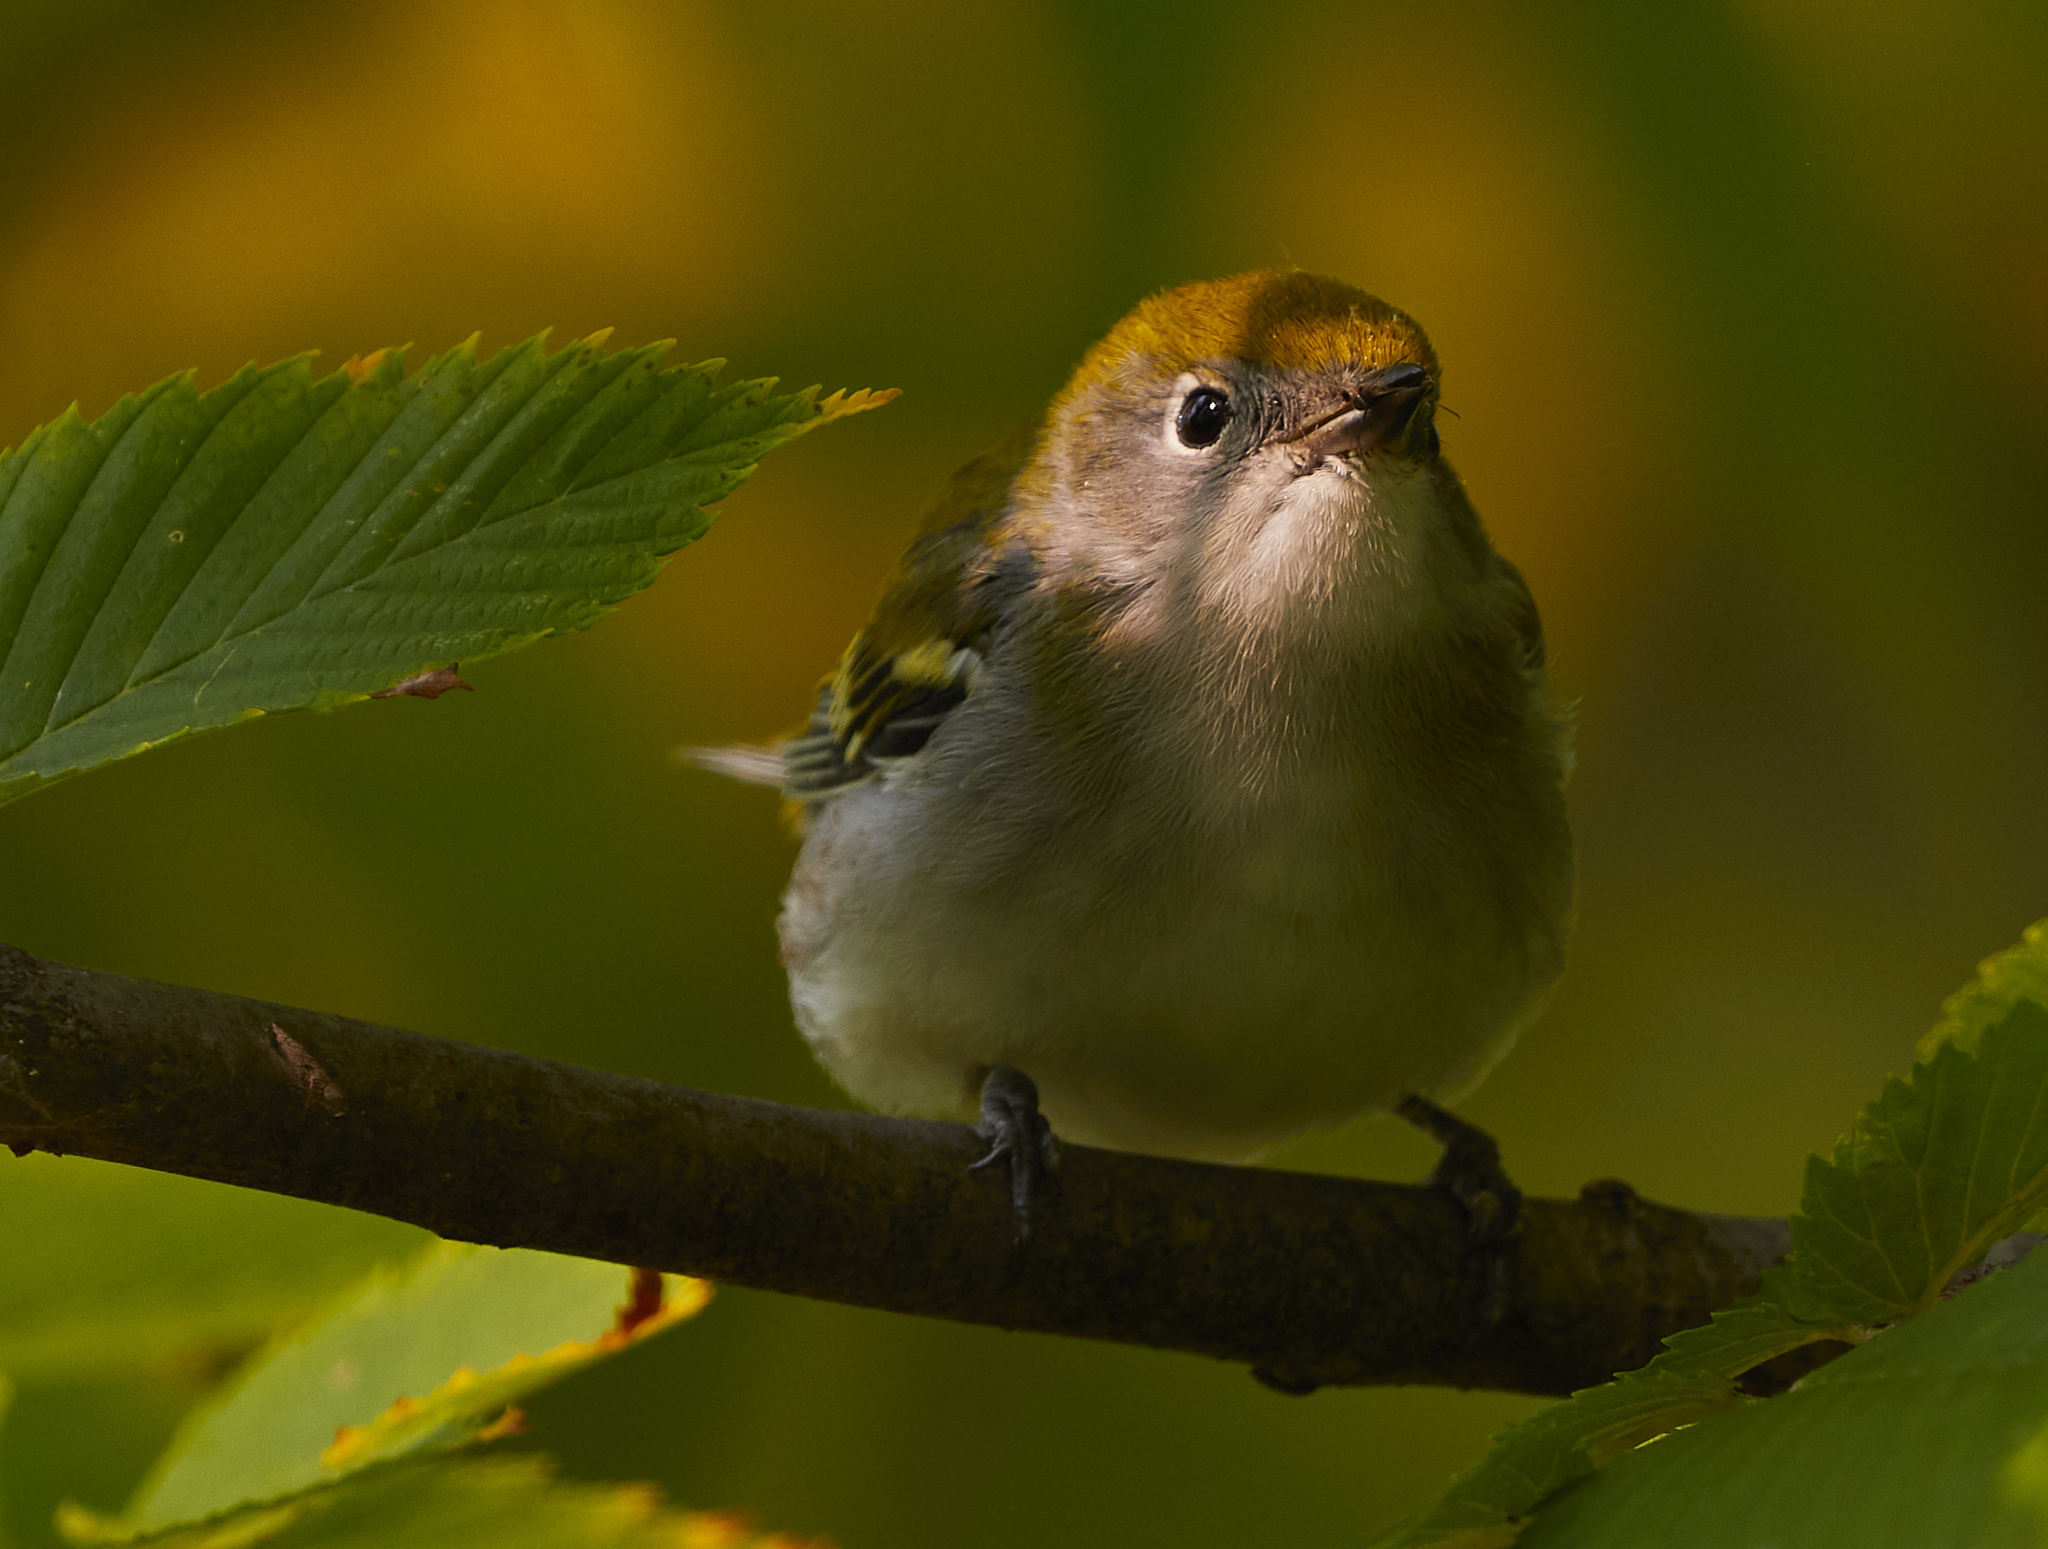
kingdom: Animalia
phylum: Chordata
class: Aves
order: Passeriformes
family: Parulidae
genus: Setophaga
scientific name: Setophaga pensylvanica
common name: Chestnut-sided warbler
